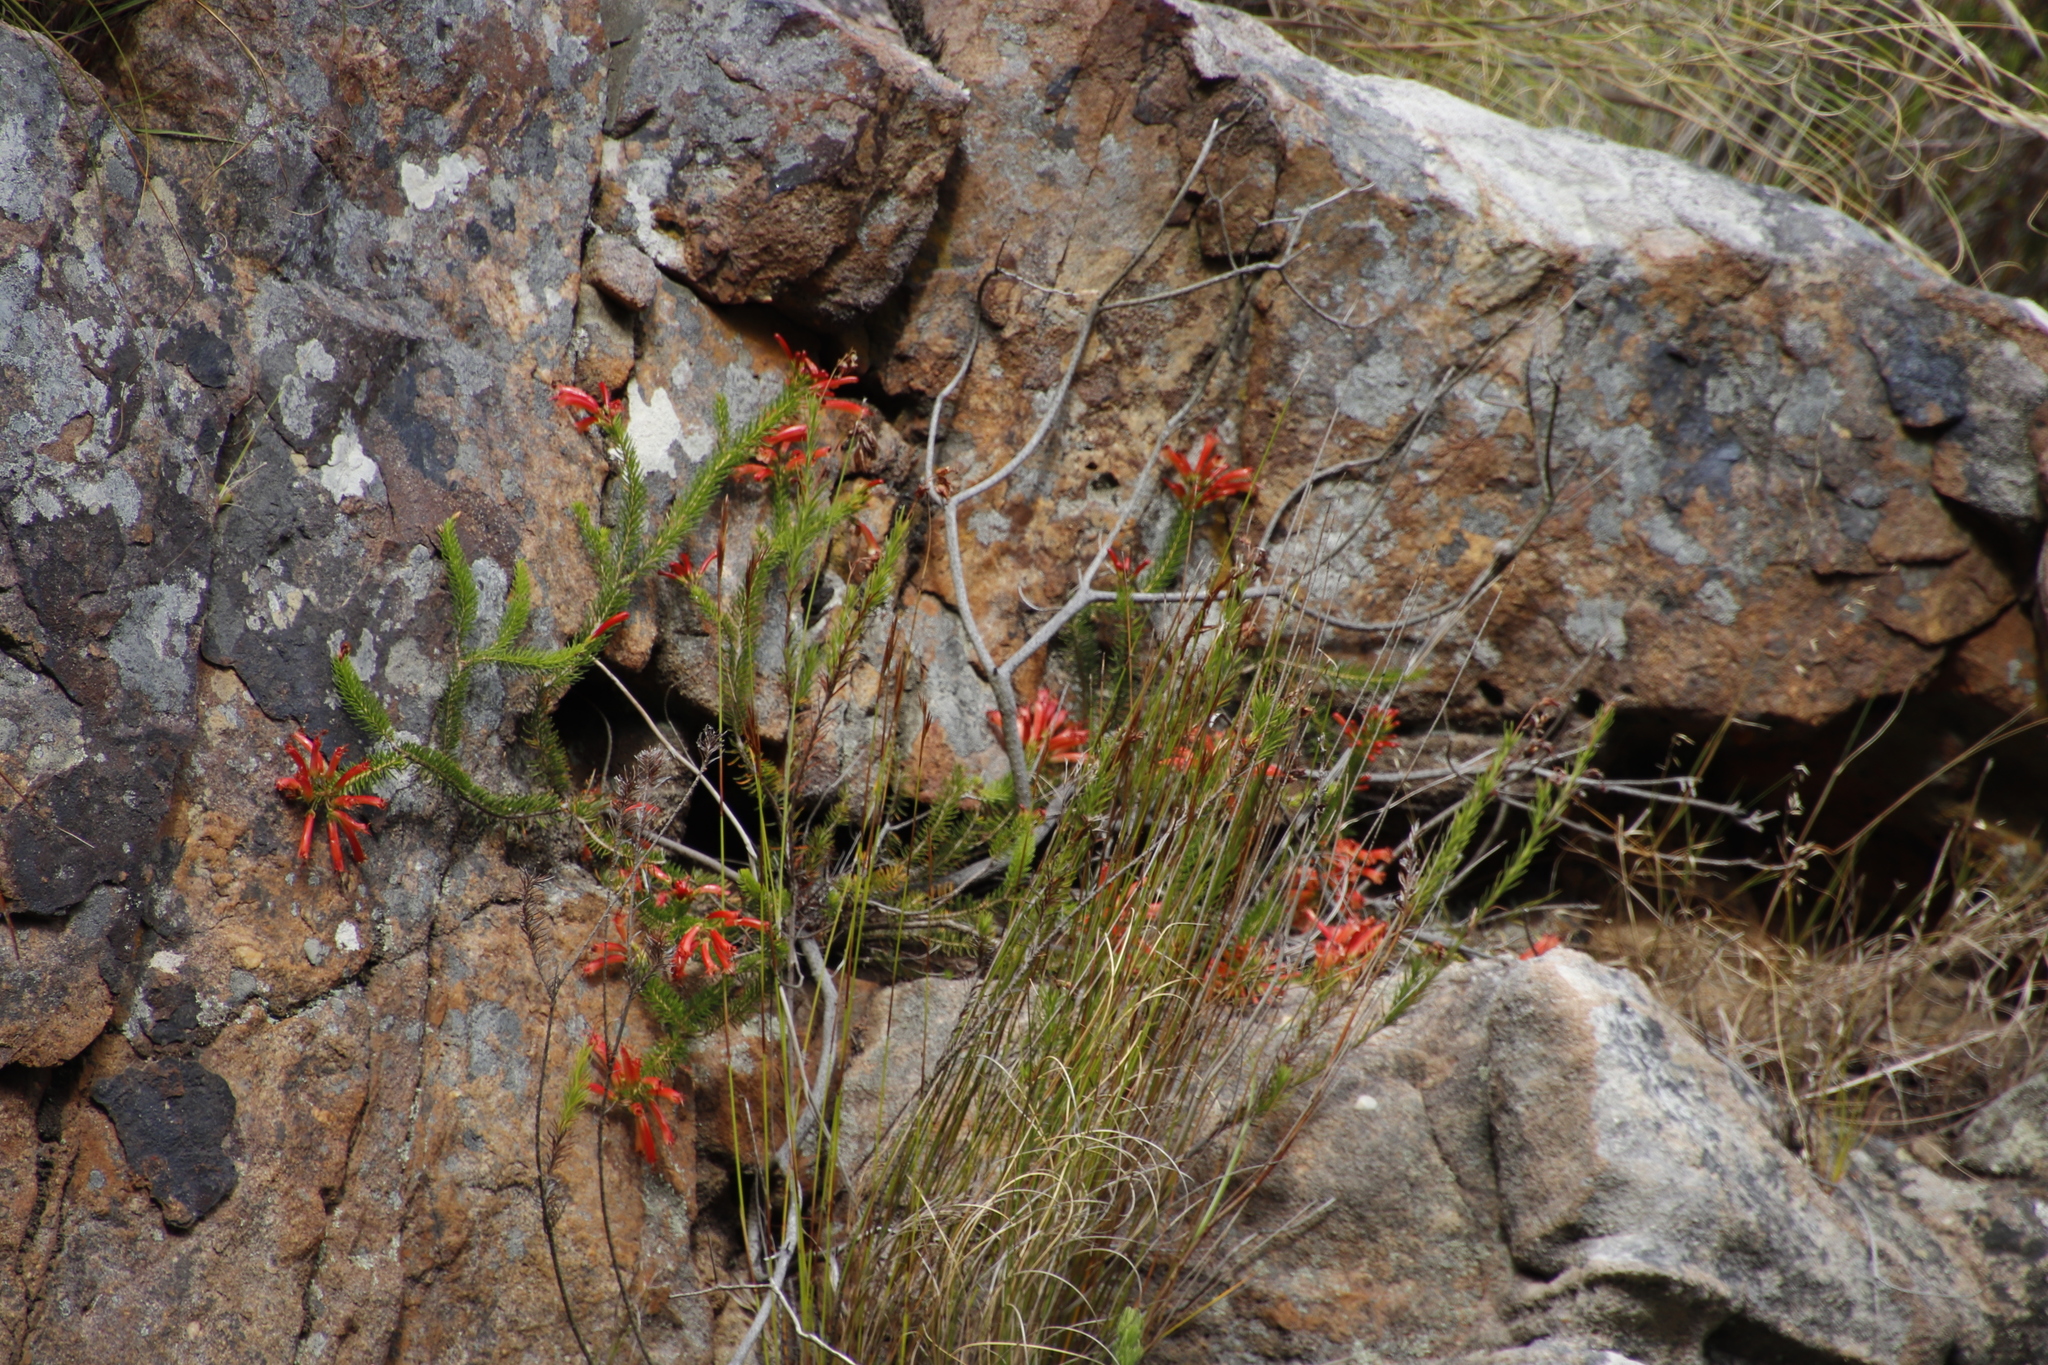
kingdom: Plantae
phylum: Tracheophyta
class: Magnoliopsida
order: Ericales
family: Ericaceae
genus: Erica
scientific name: Erica nevillei
